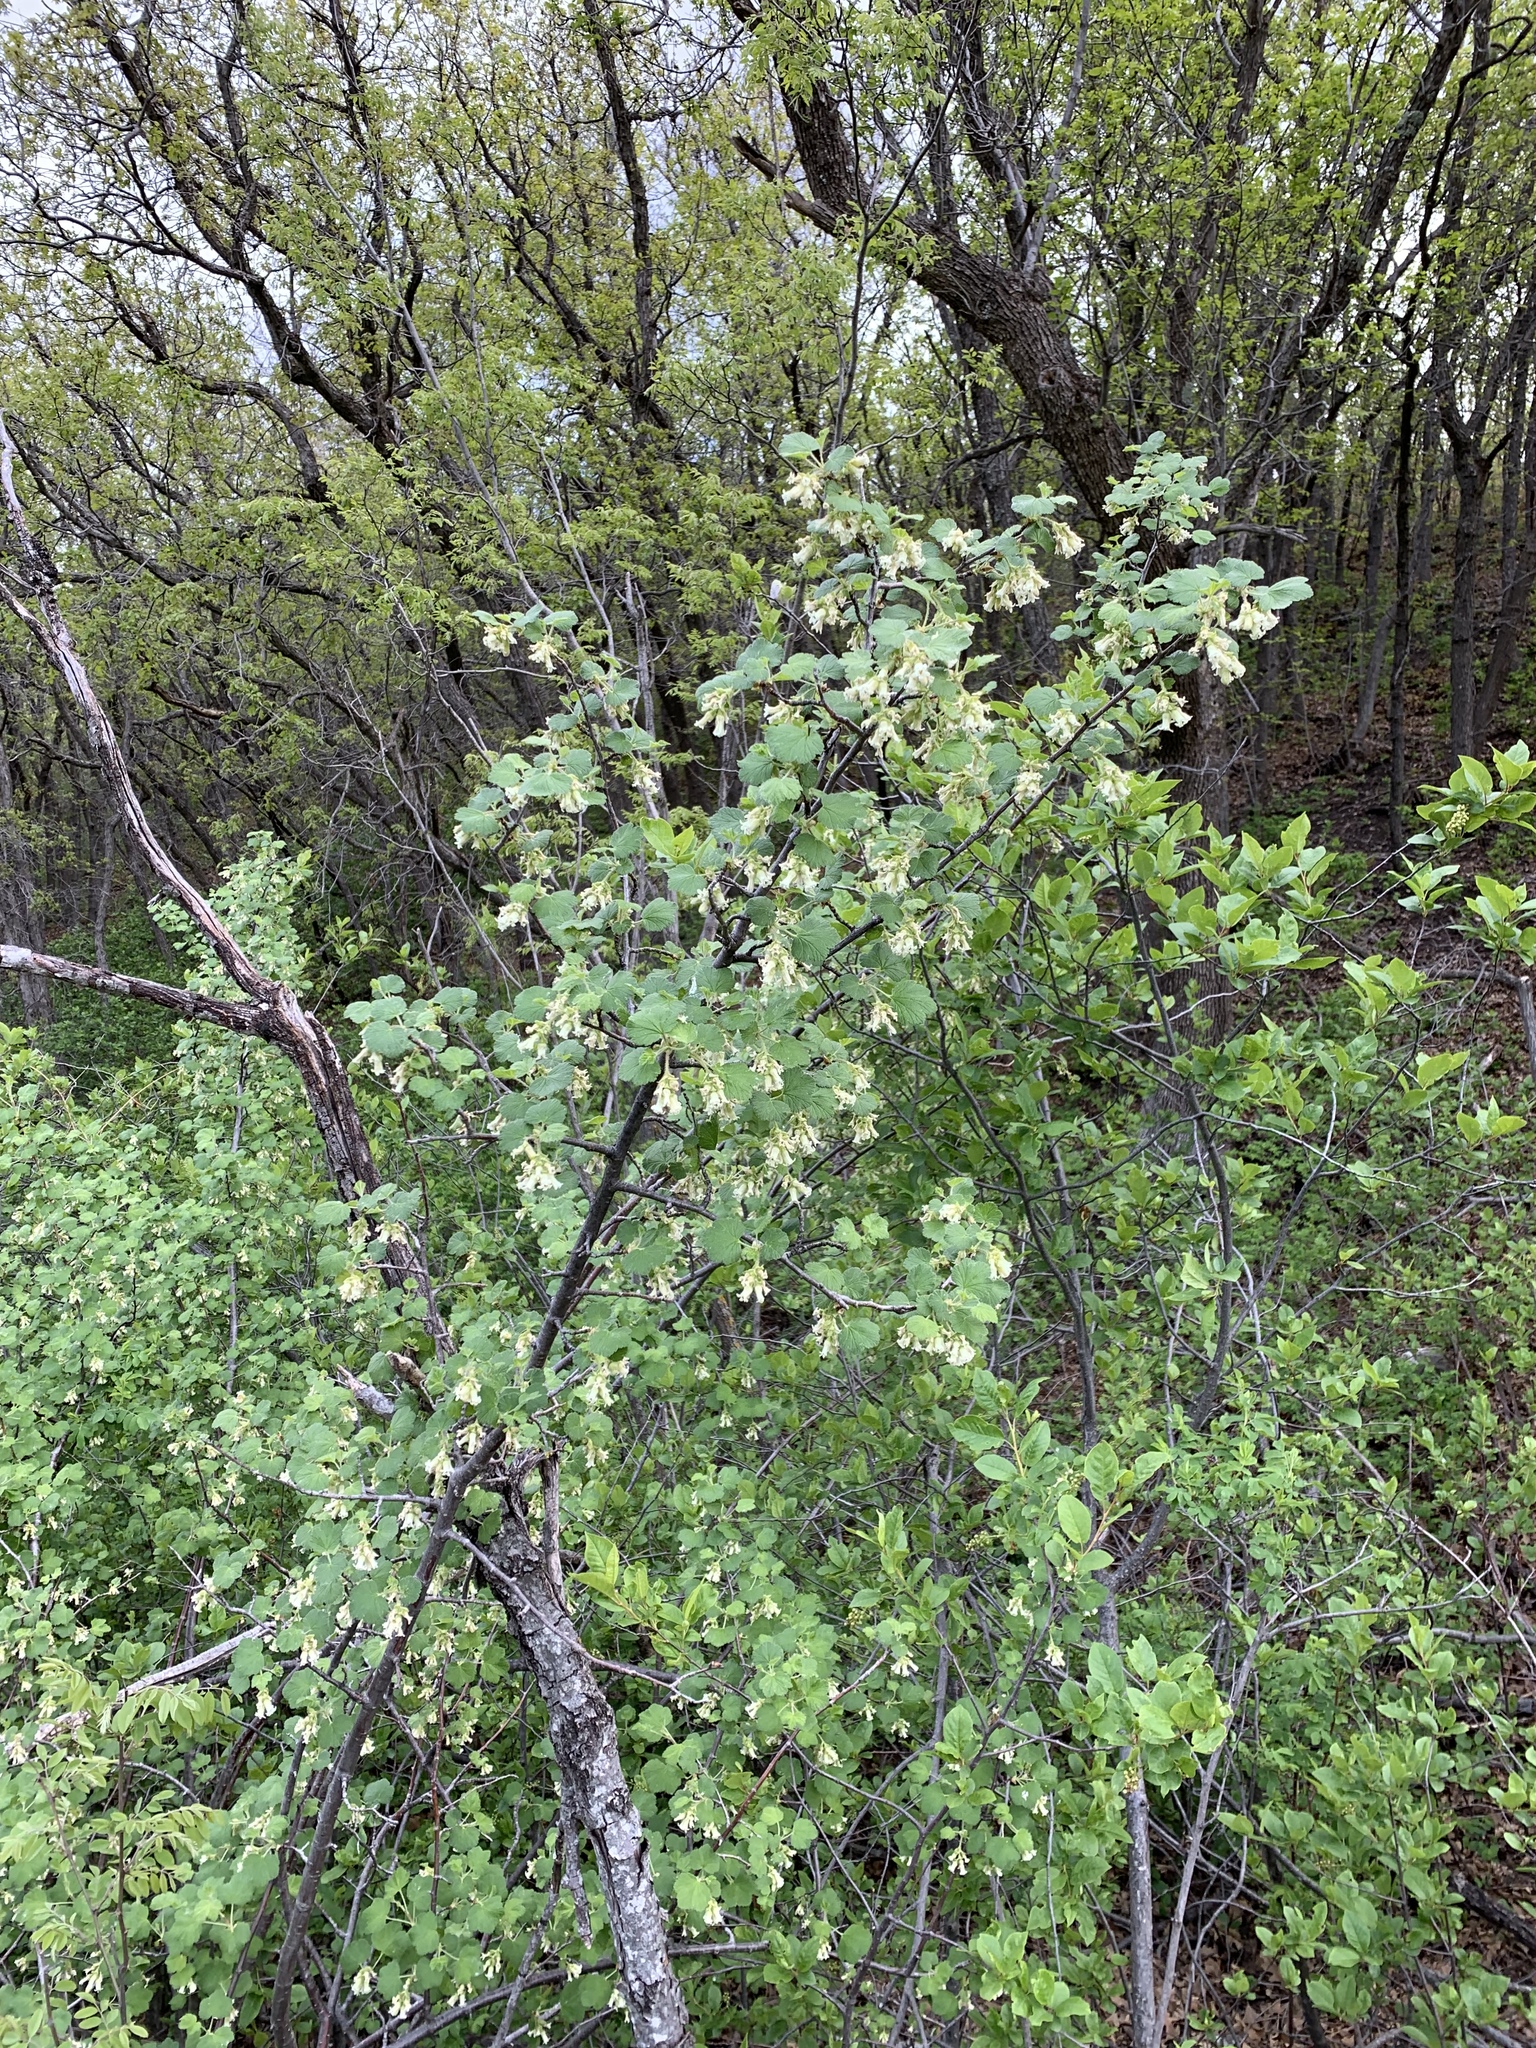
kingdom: Plantae
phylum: Tracheophyta
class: Magnoliopsida
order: Saxifragales
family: Grossulariaceae
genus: Ribes
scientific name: Ribes mescalerium
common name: Southwestern black currant
